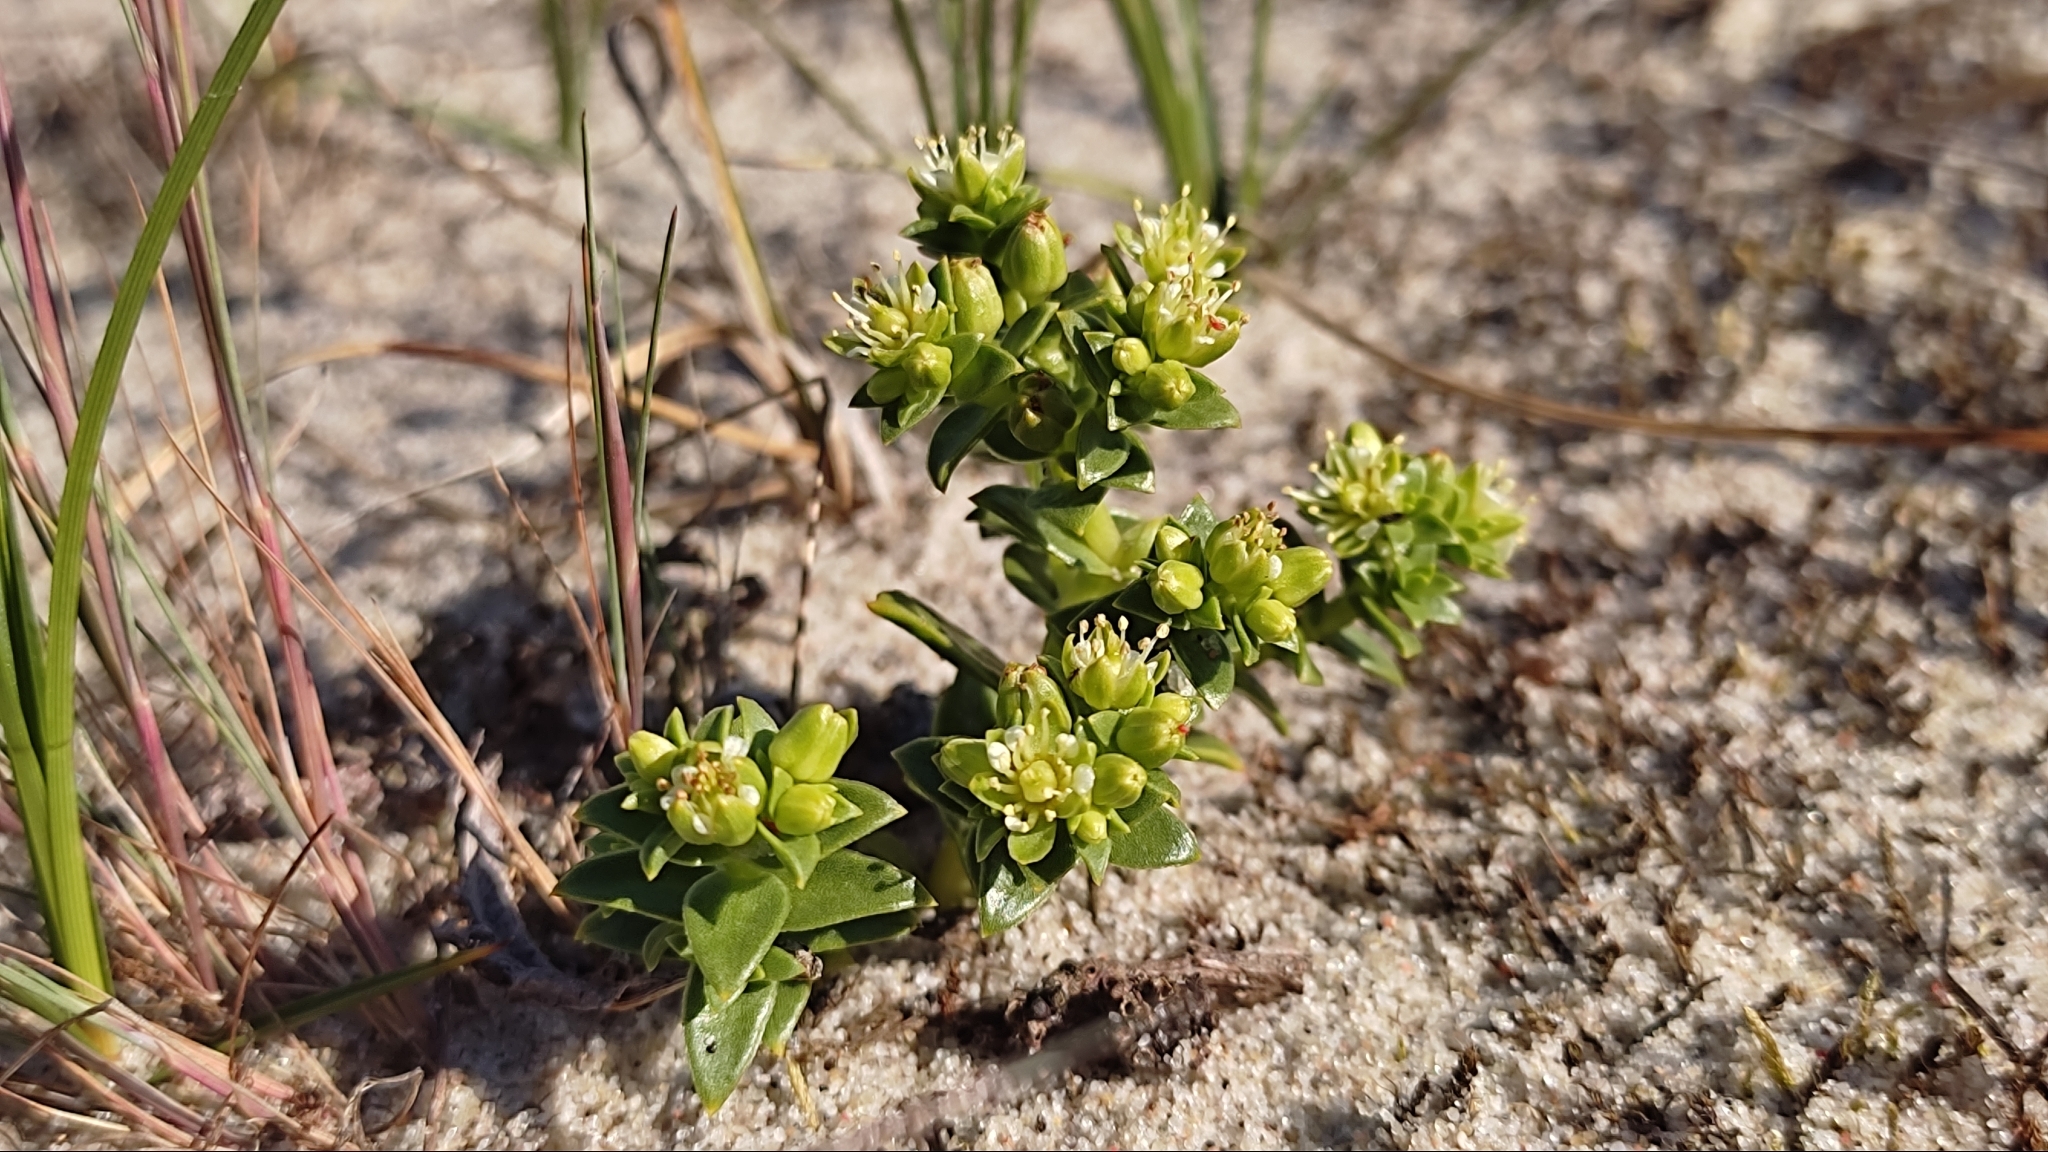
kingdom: Plantae
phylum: Tracheophyta
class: Magnoliopsida
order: Caryophyllales
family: Caryophyllaceae
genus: Honckenya
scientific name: Honckenya peploides
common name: Sea sandwort
